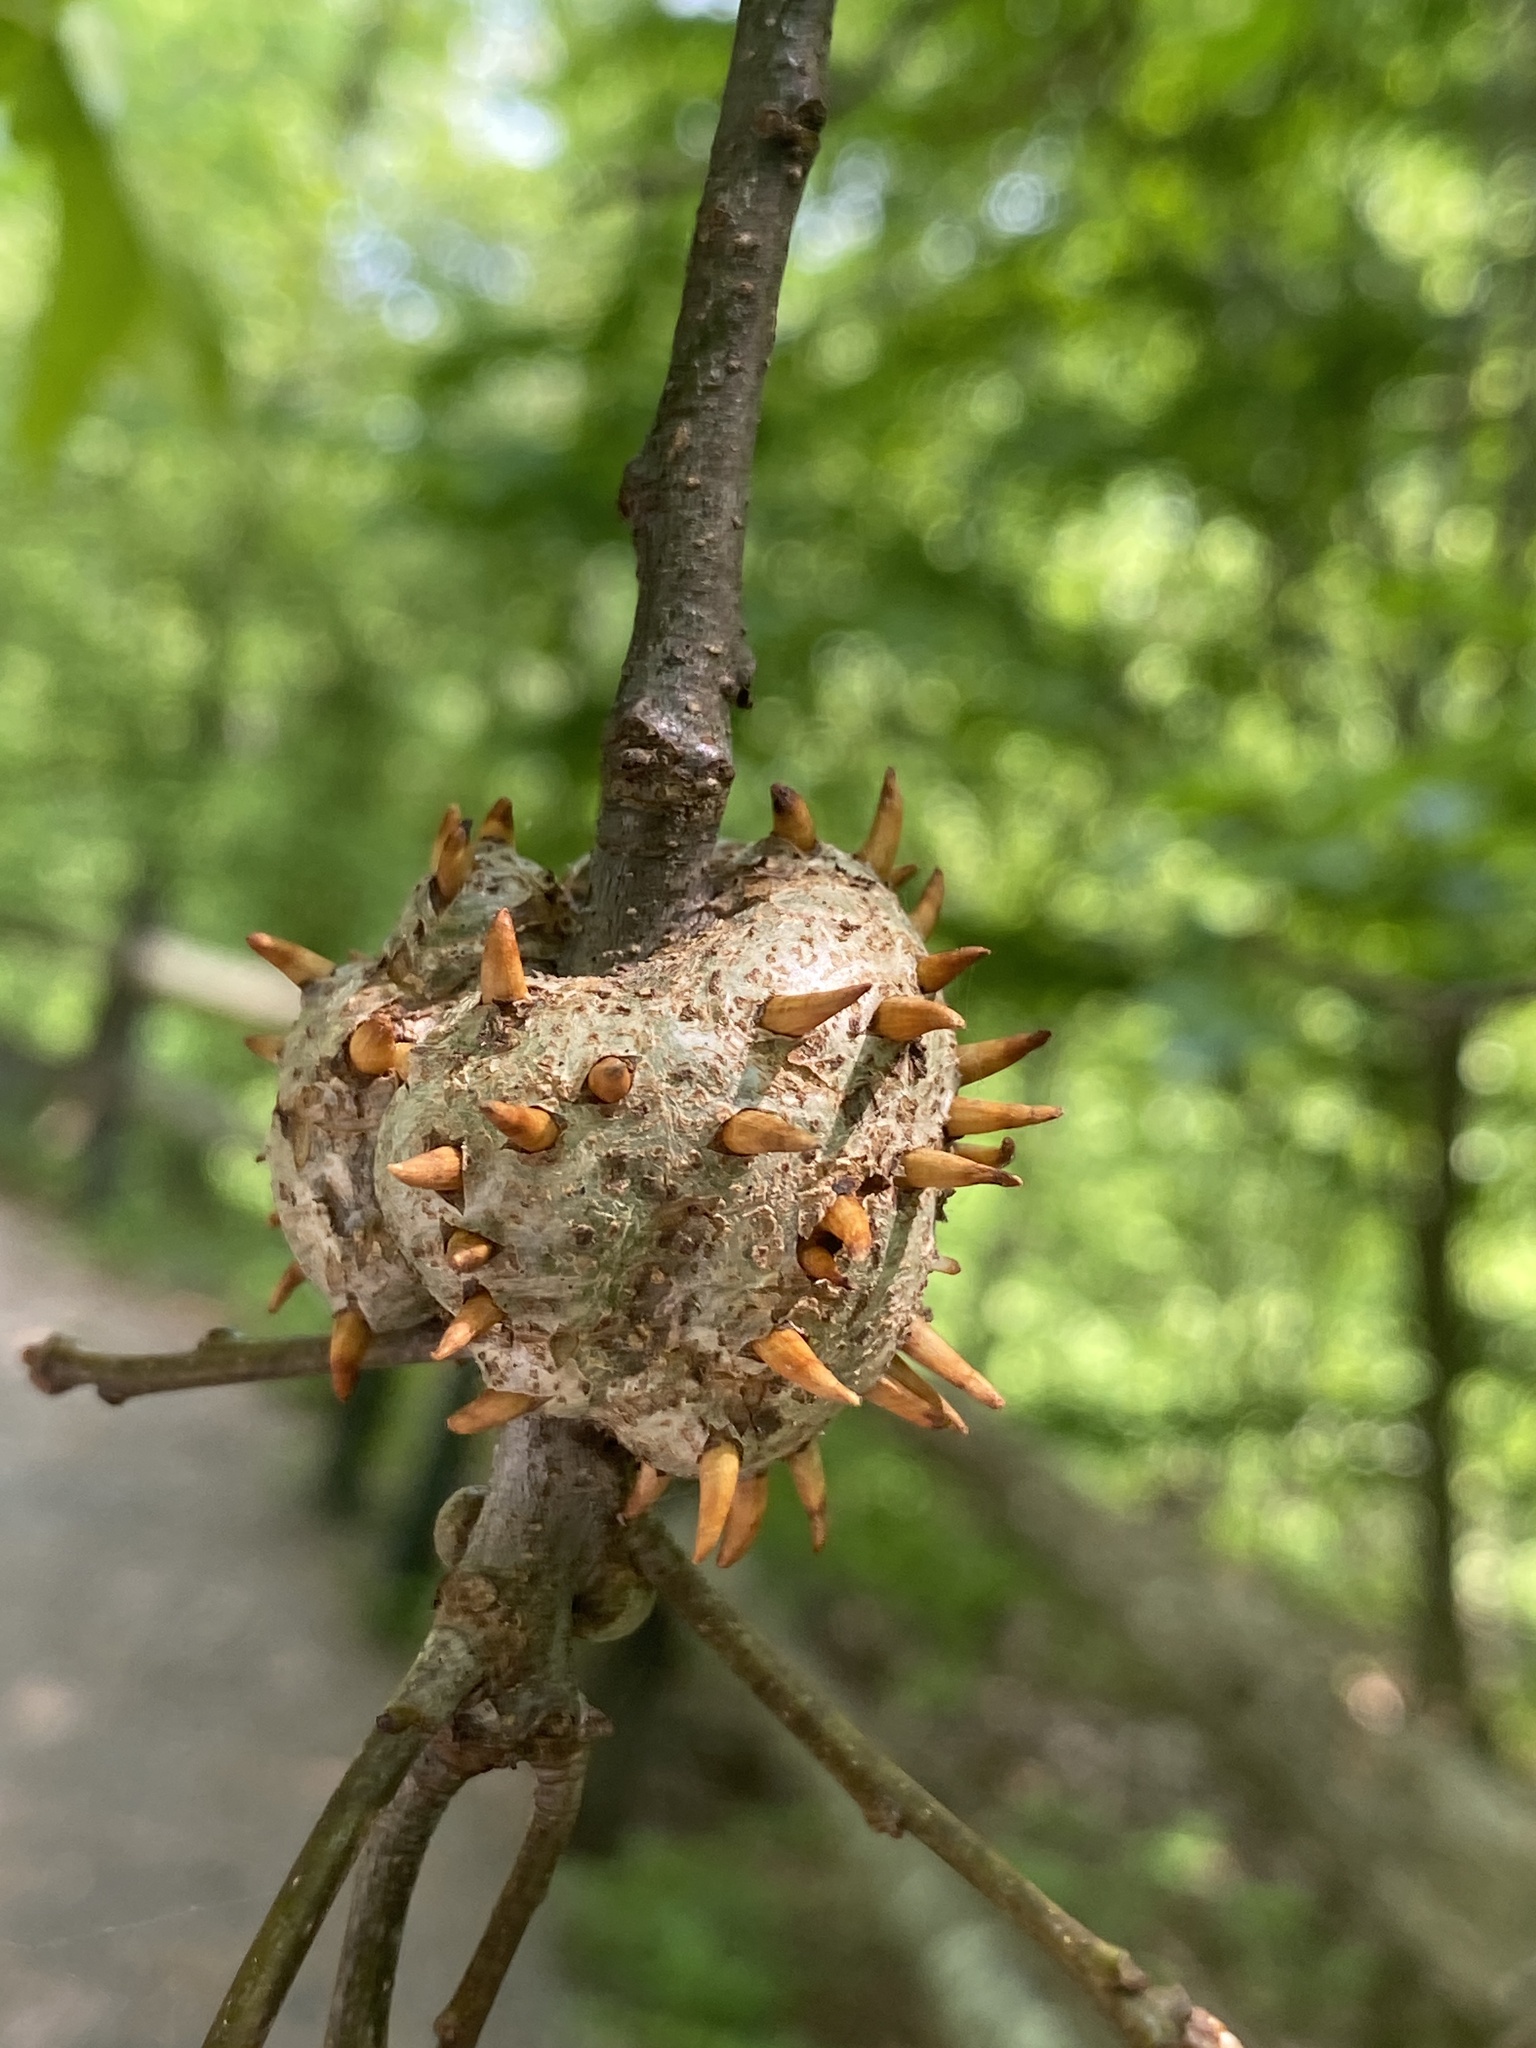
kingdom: Animalia
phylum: Arthropoda
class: Insecta
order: Hymenoptera
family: Cynipidae
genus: Callirhytis
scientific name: Callirhytis
